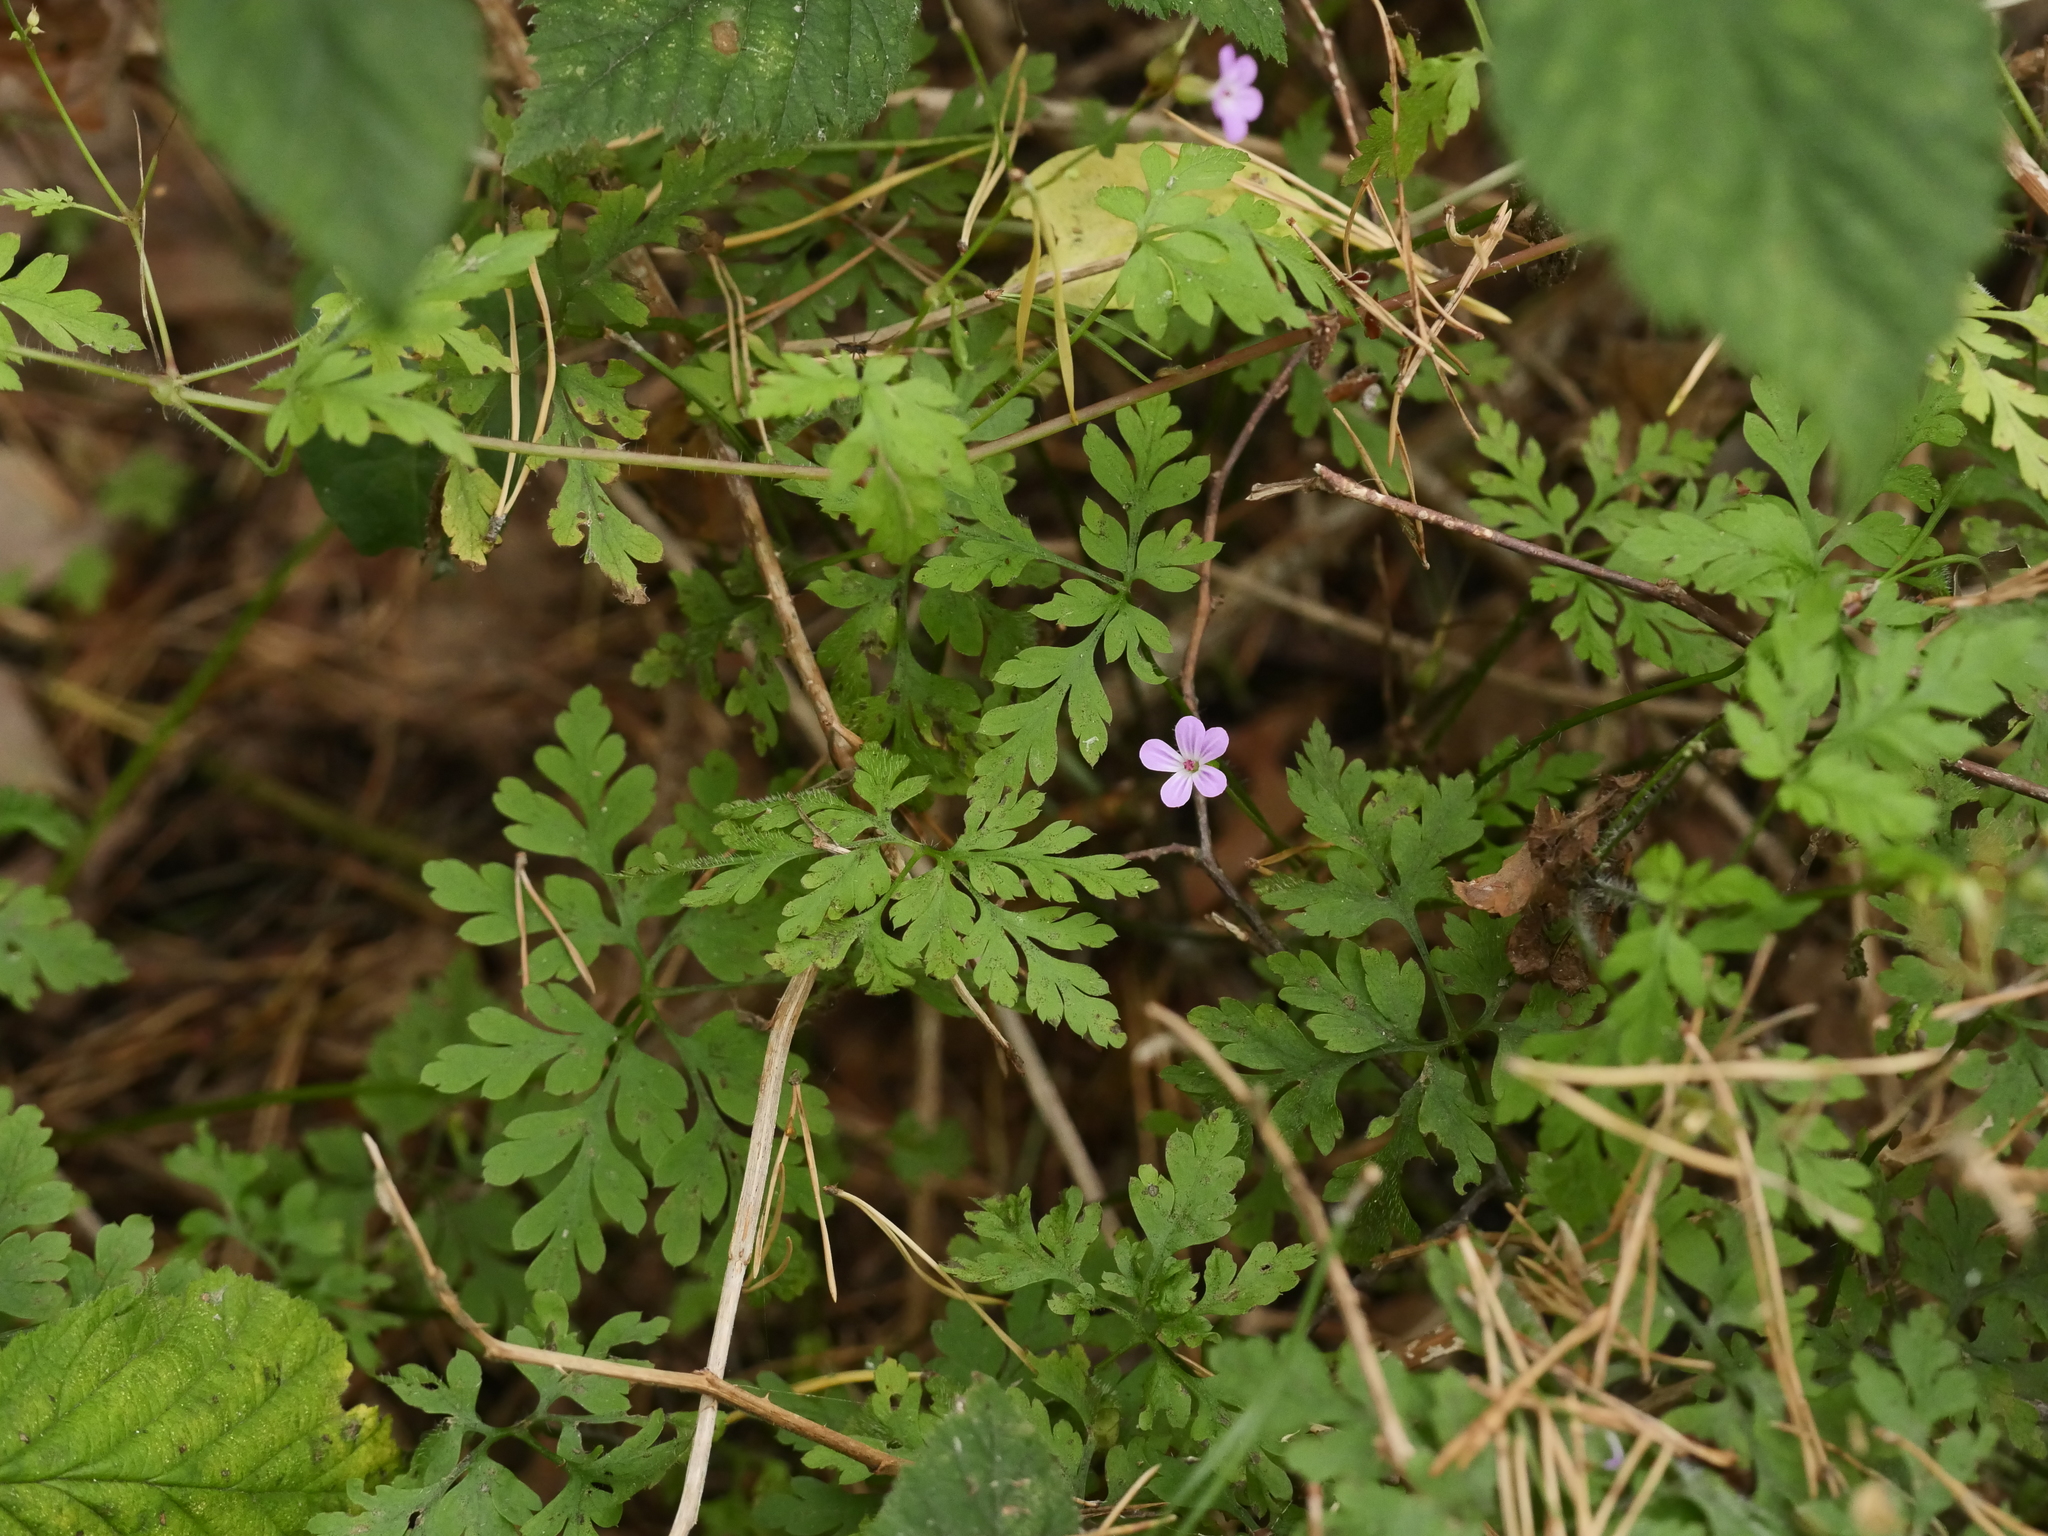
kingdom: Plantae
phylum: Tracheophyta
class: Magnoliopsida
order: Geraniales
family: Geraniaceae
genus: Geranium
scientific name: Geranium robertianum
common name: Herb-robert
